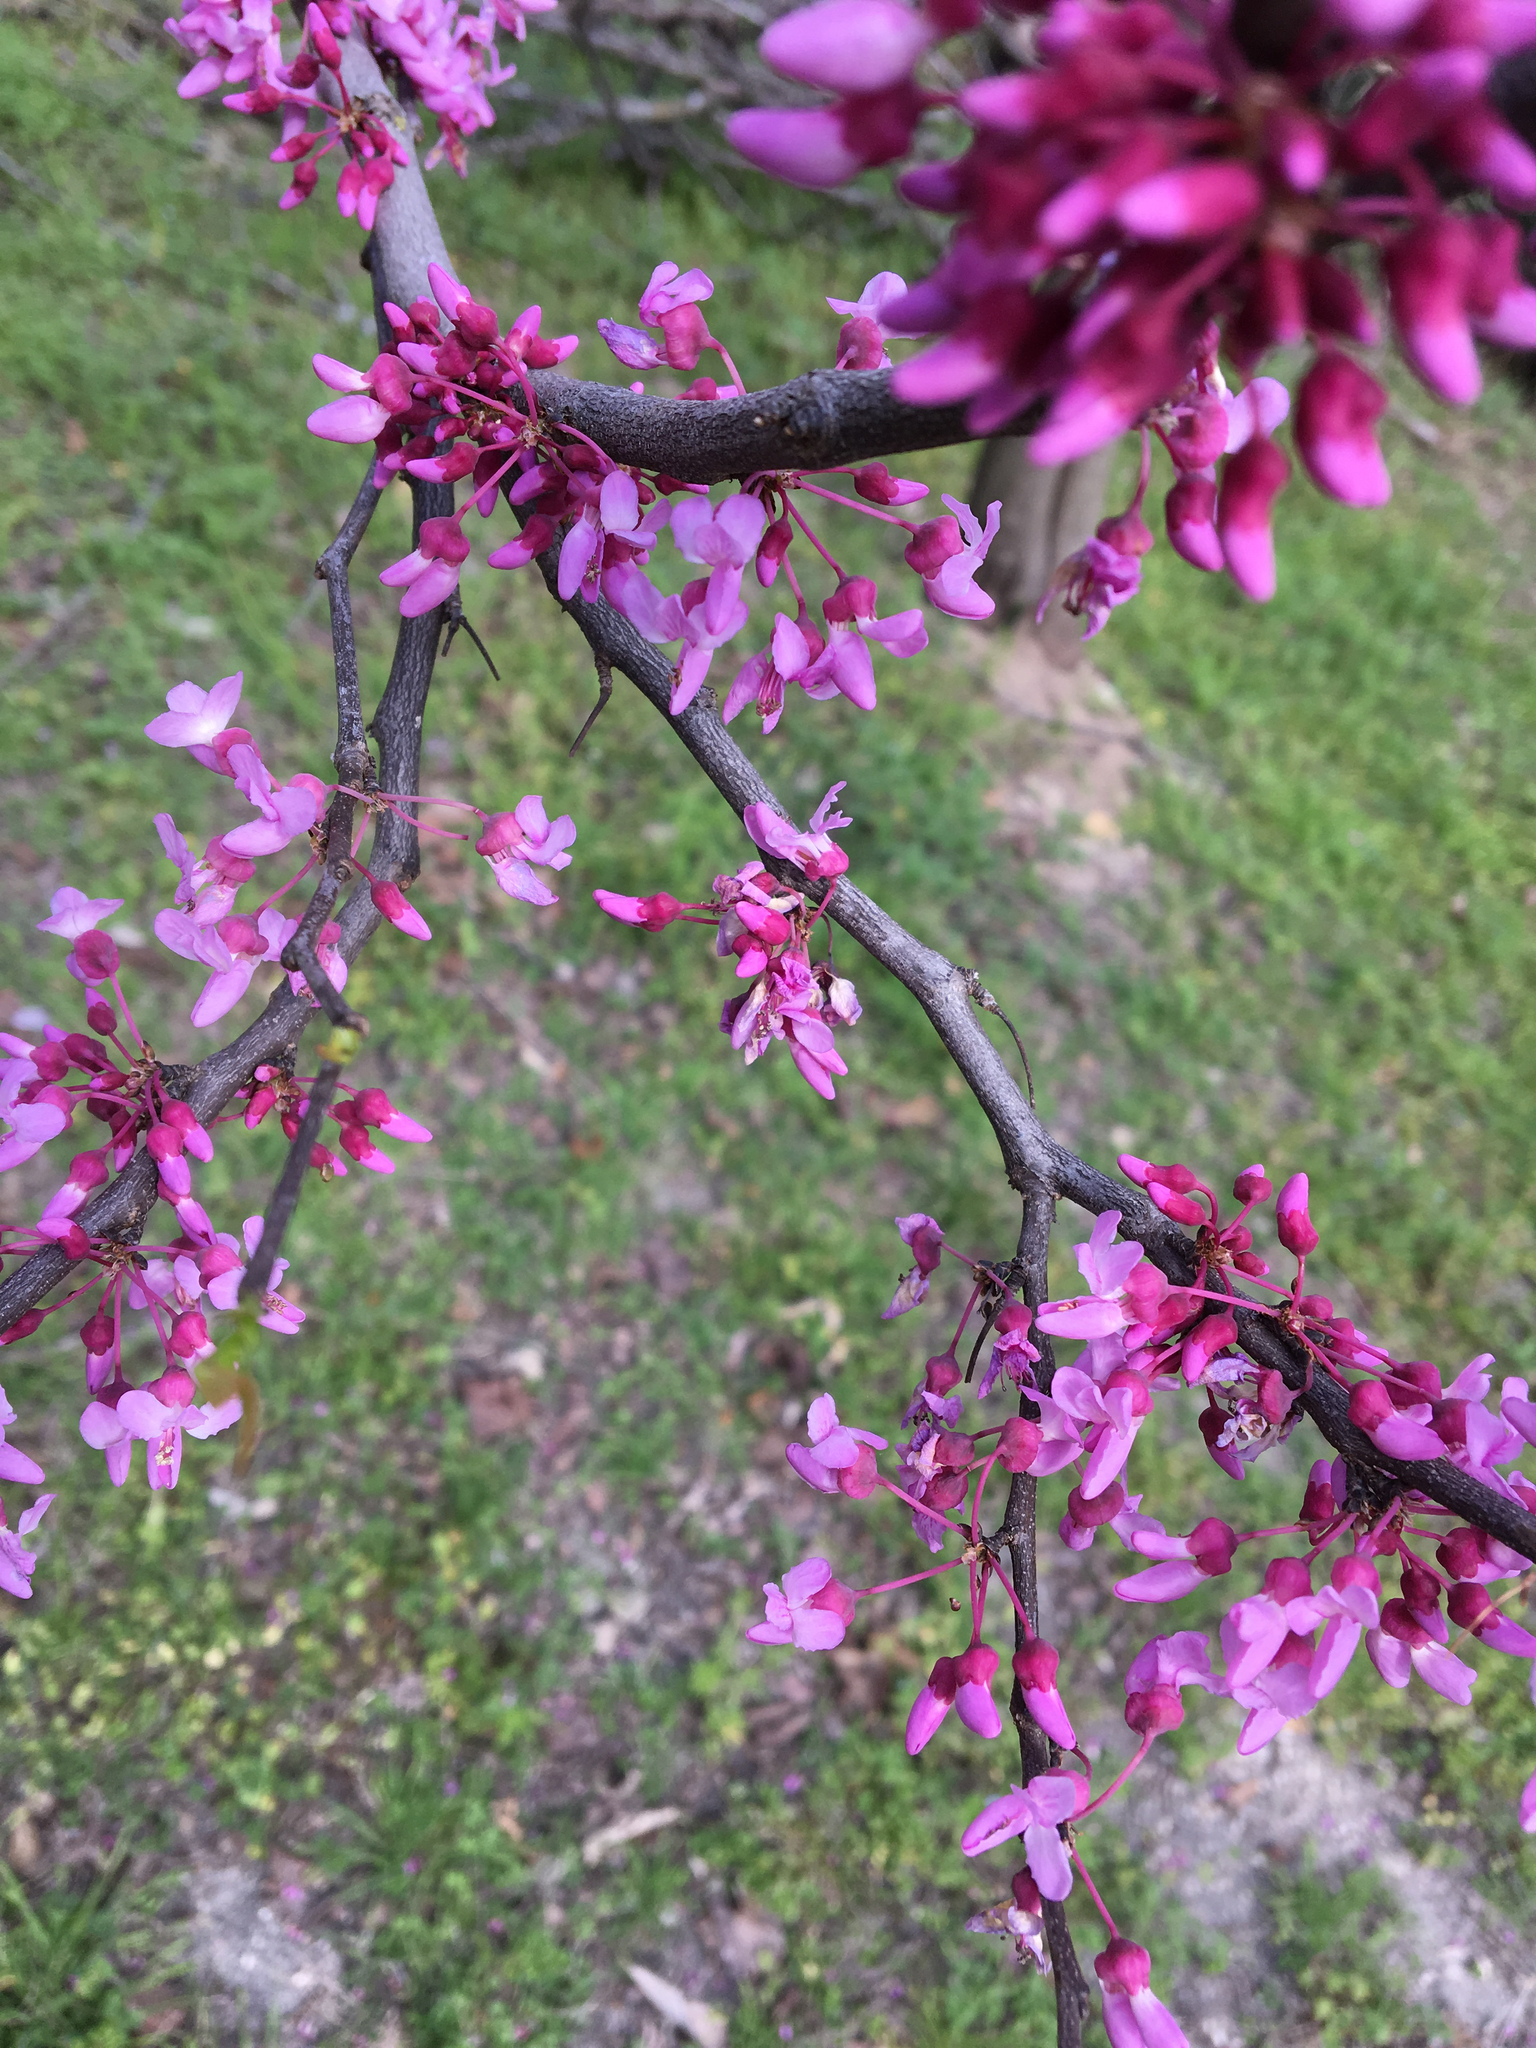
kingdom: Plantae
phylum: Tracheophyta
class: Magnoliopsida
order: Fabales
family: Fabaceae
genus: Cercis
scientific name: Cercis canadensis
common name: Eastern redbud
